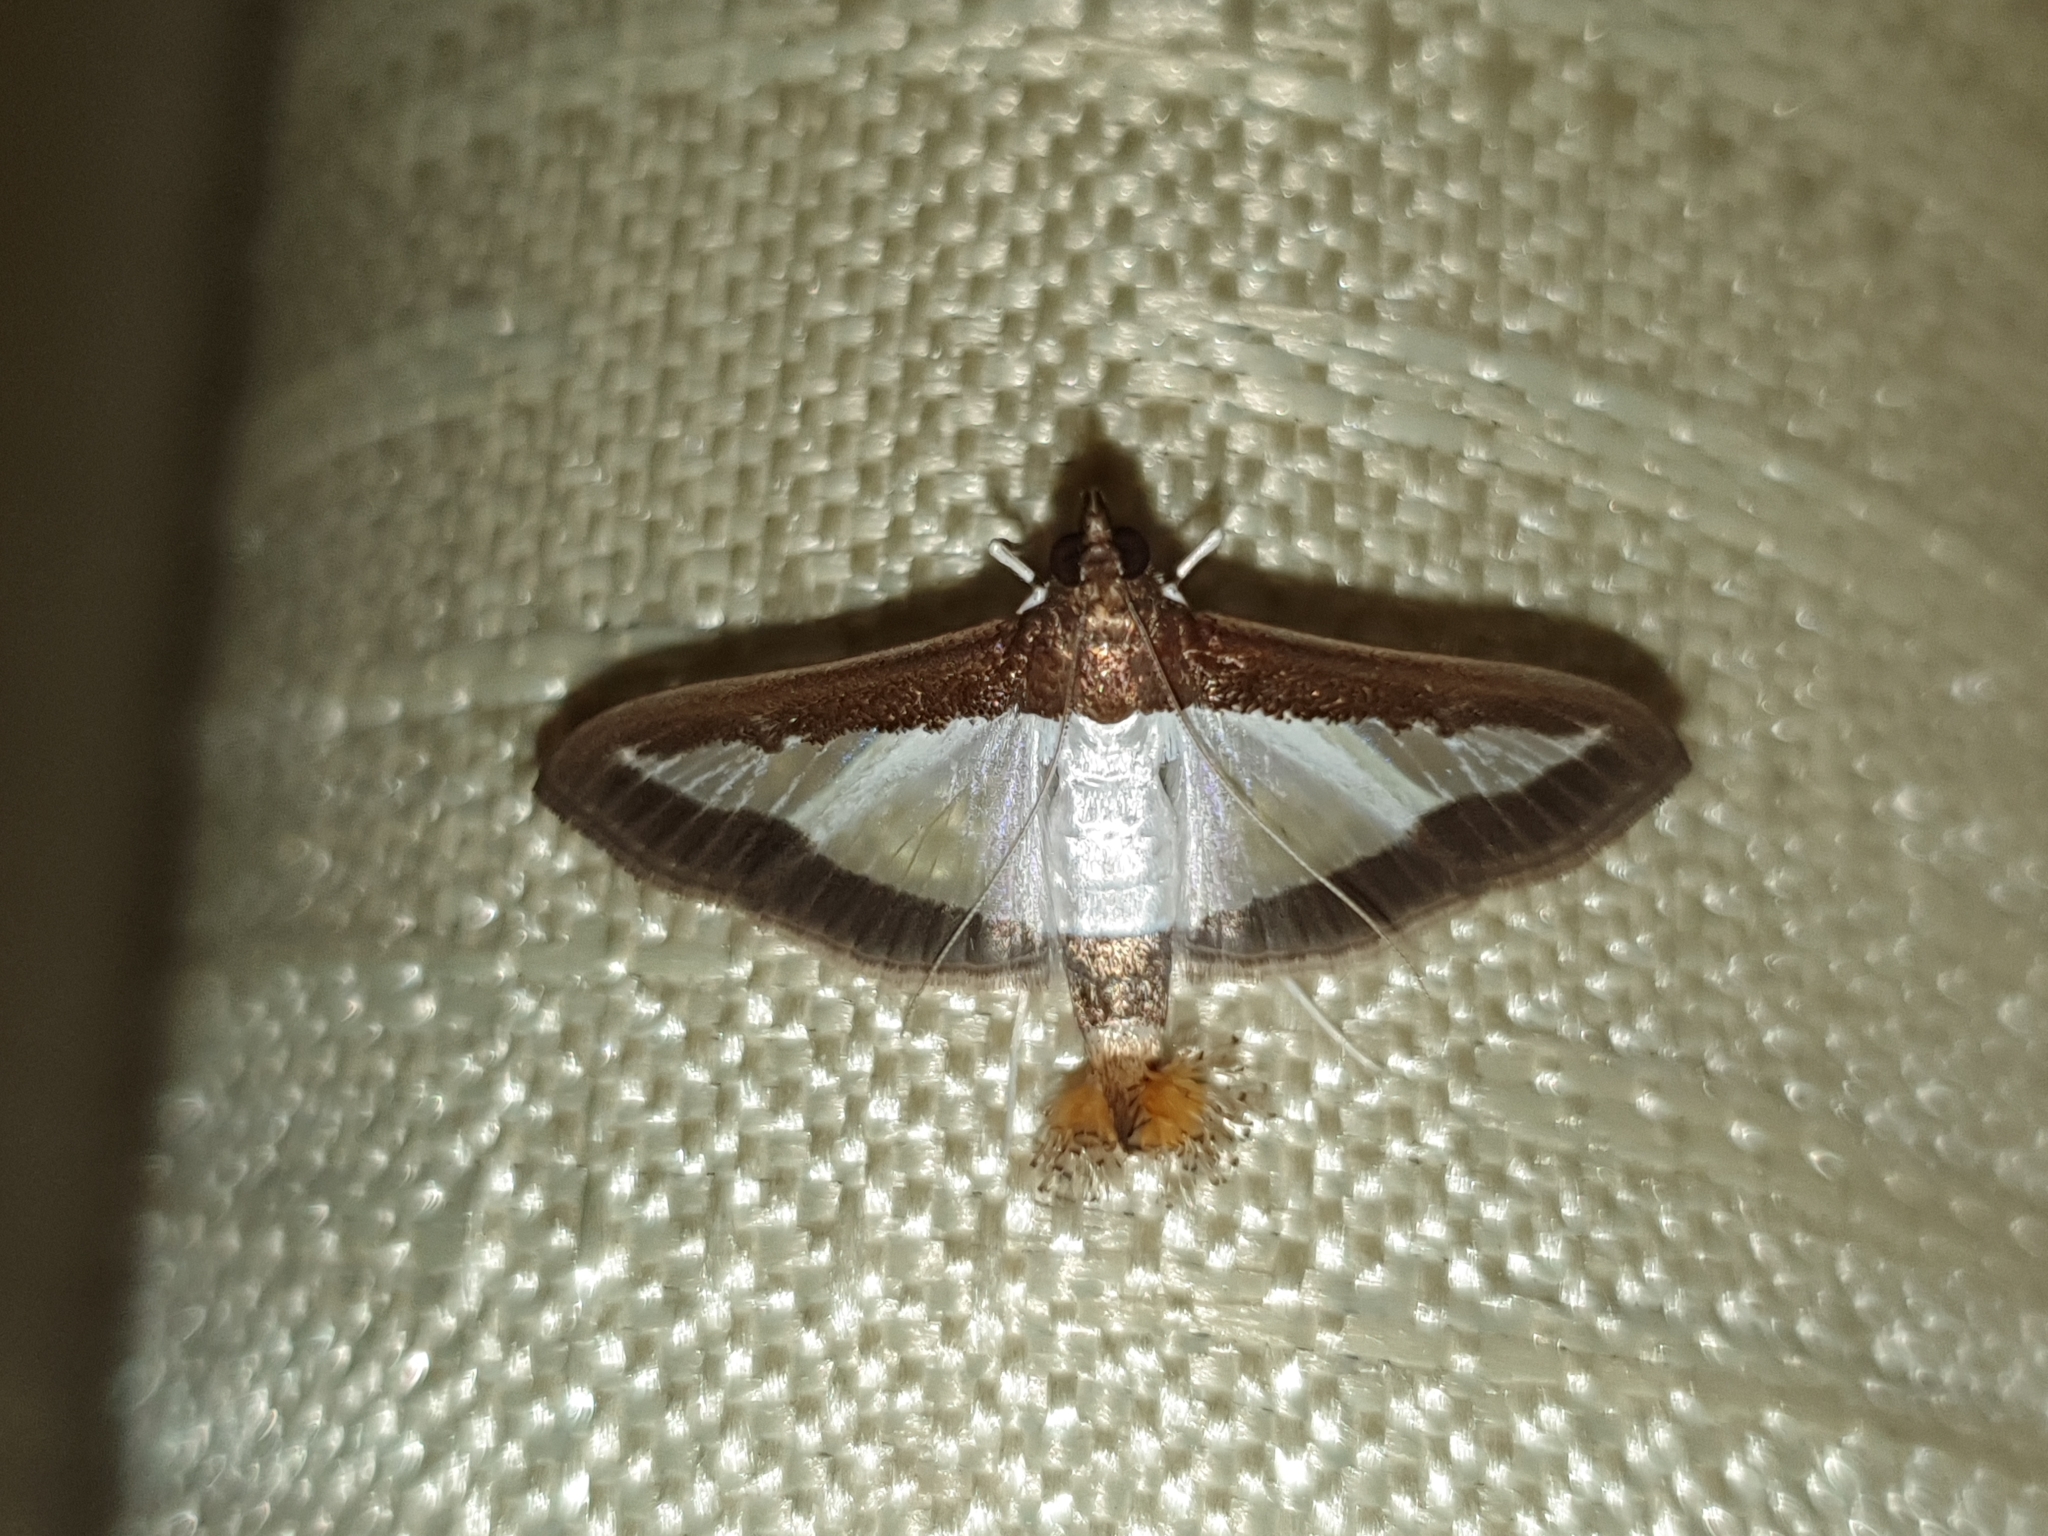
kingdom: Animalia
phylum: Arthropoda
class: Insecta
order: Lepidoptera
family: Crambidae
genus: Diaphania
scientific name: Diaphania indica
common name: Cucumber moth
